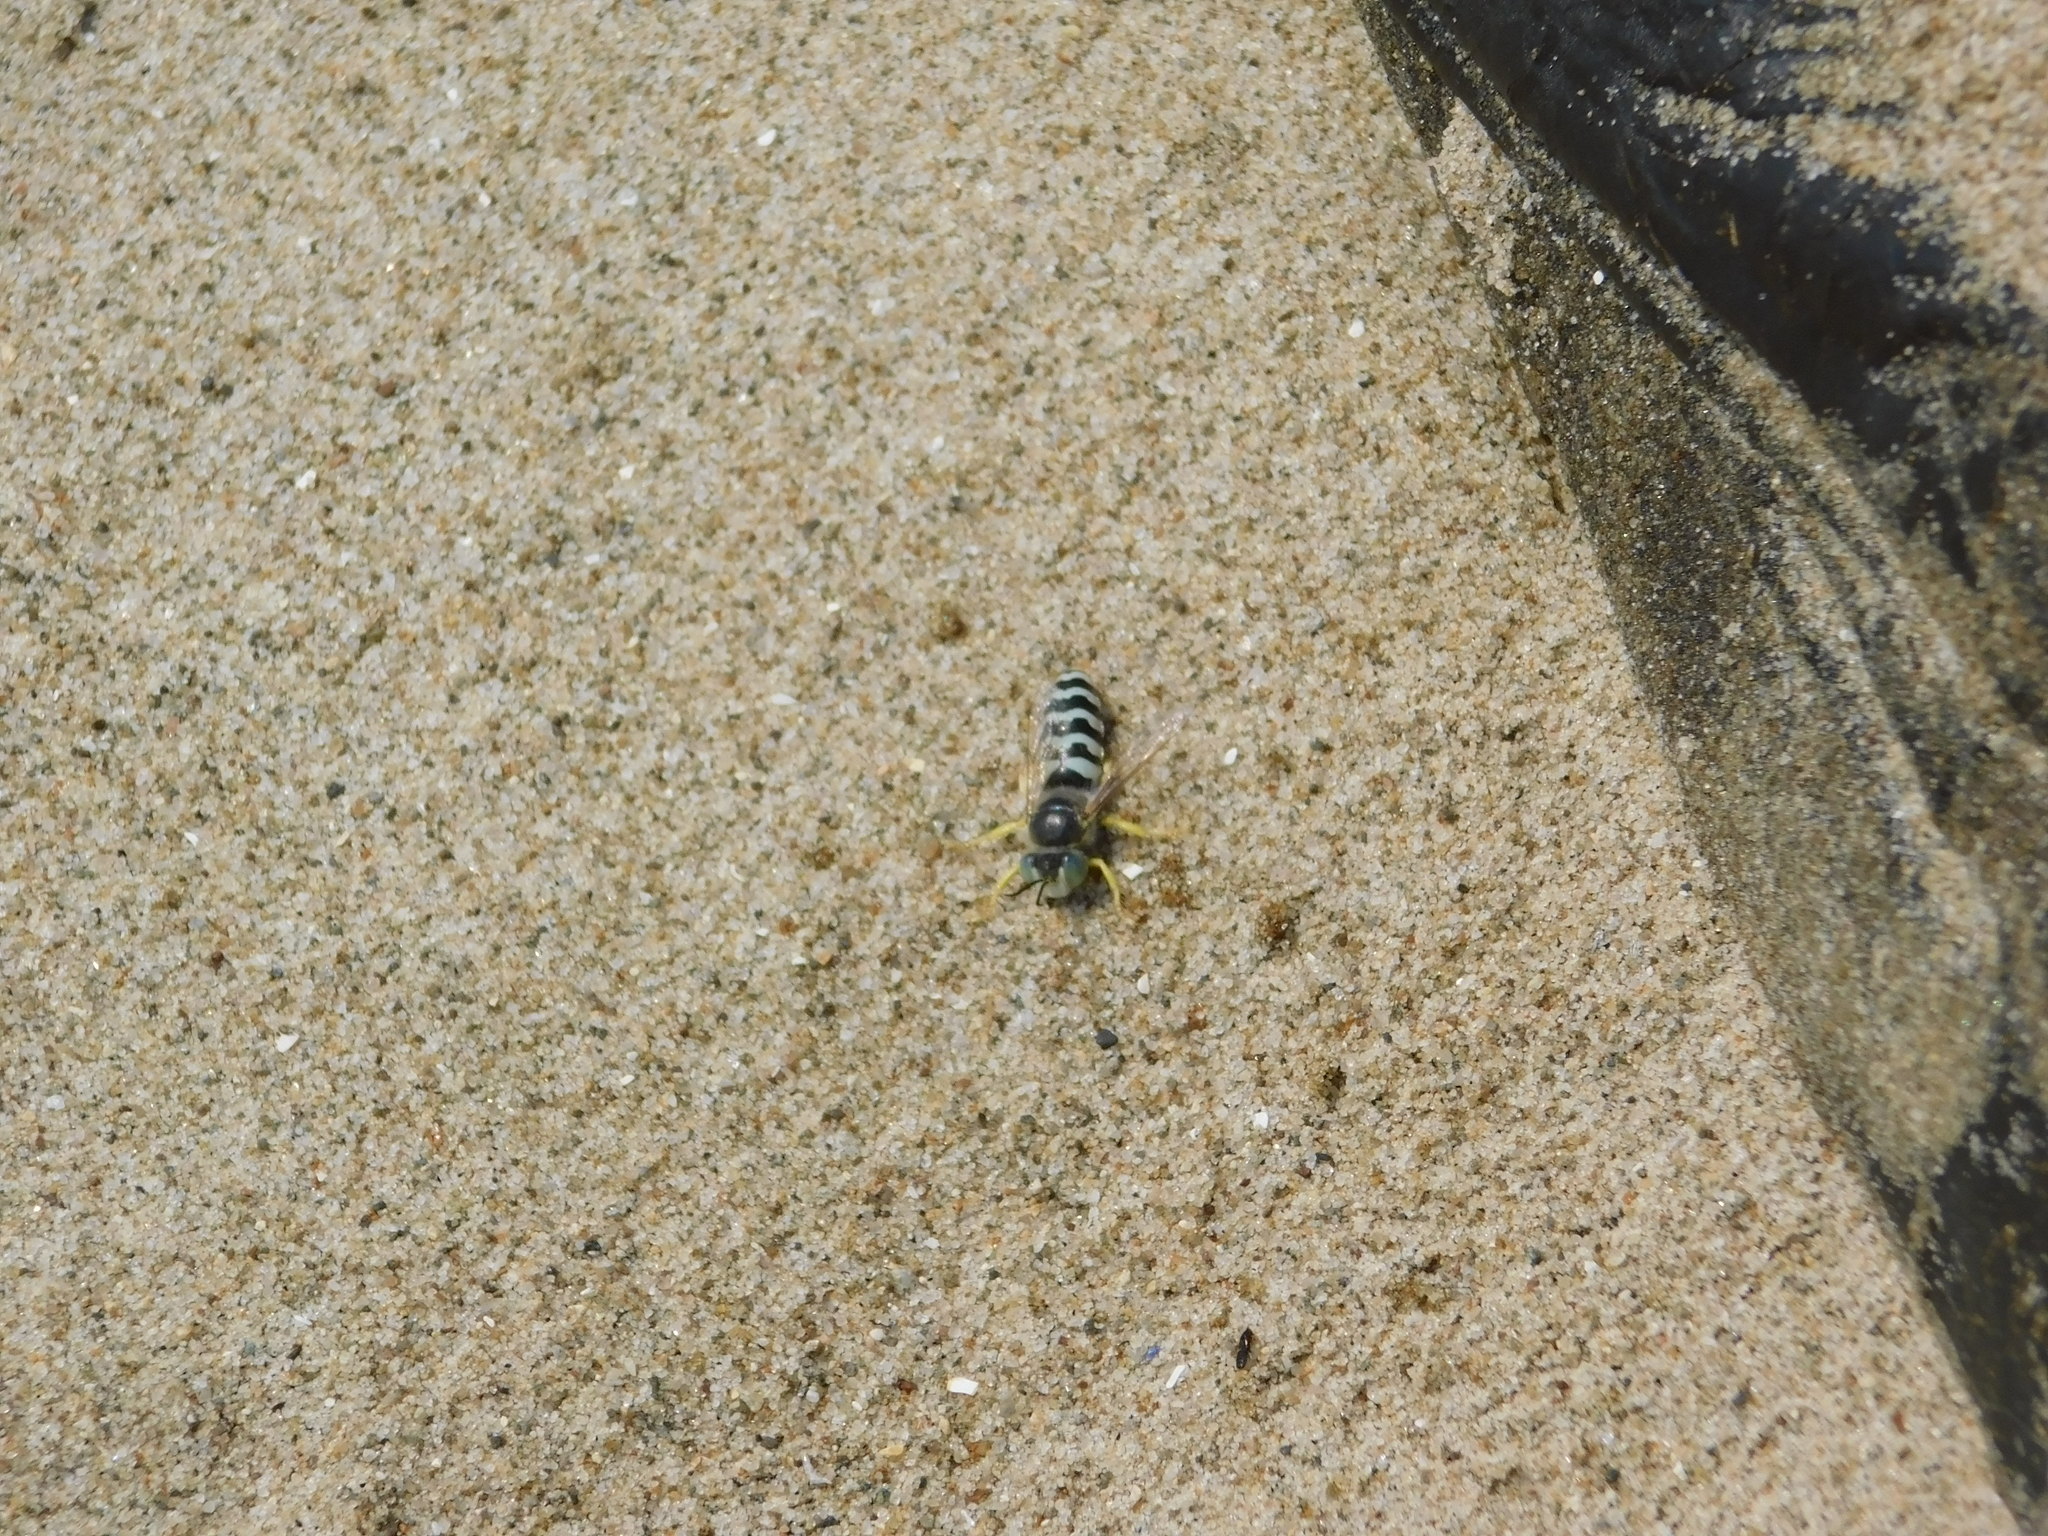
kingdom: Animalia
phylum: Arthropoda
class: Insecta
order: Hymenoptera
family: Crabronidae
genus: Bembix
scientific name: Bembix americana
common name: American sand wasp
